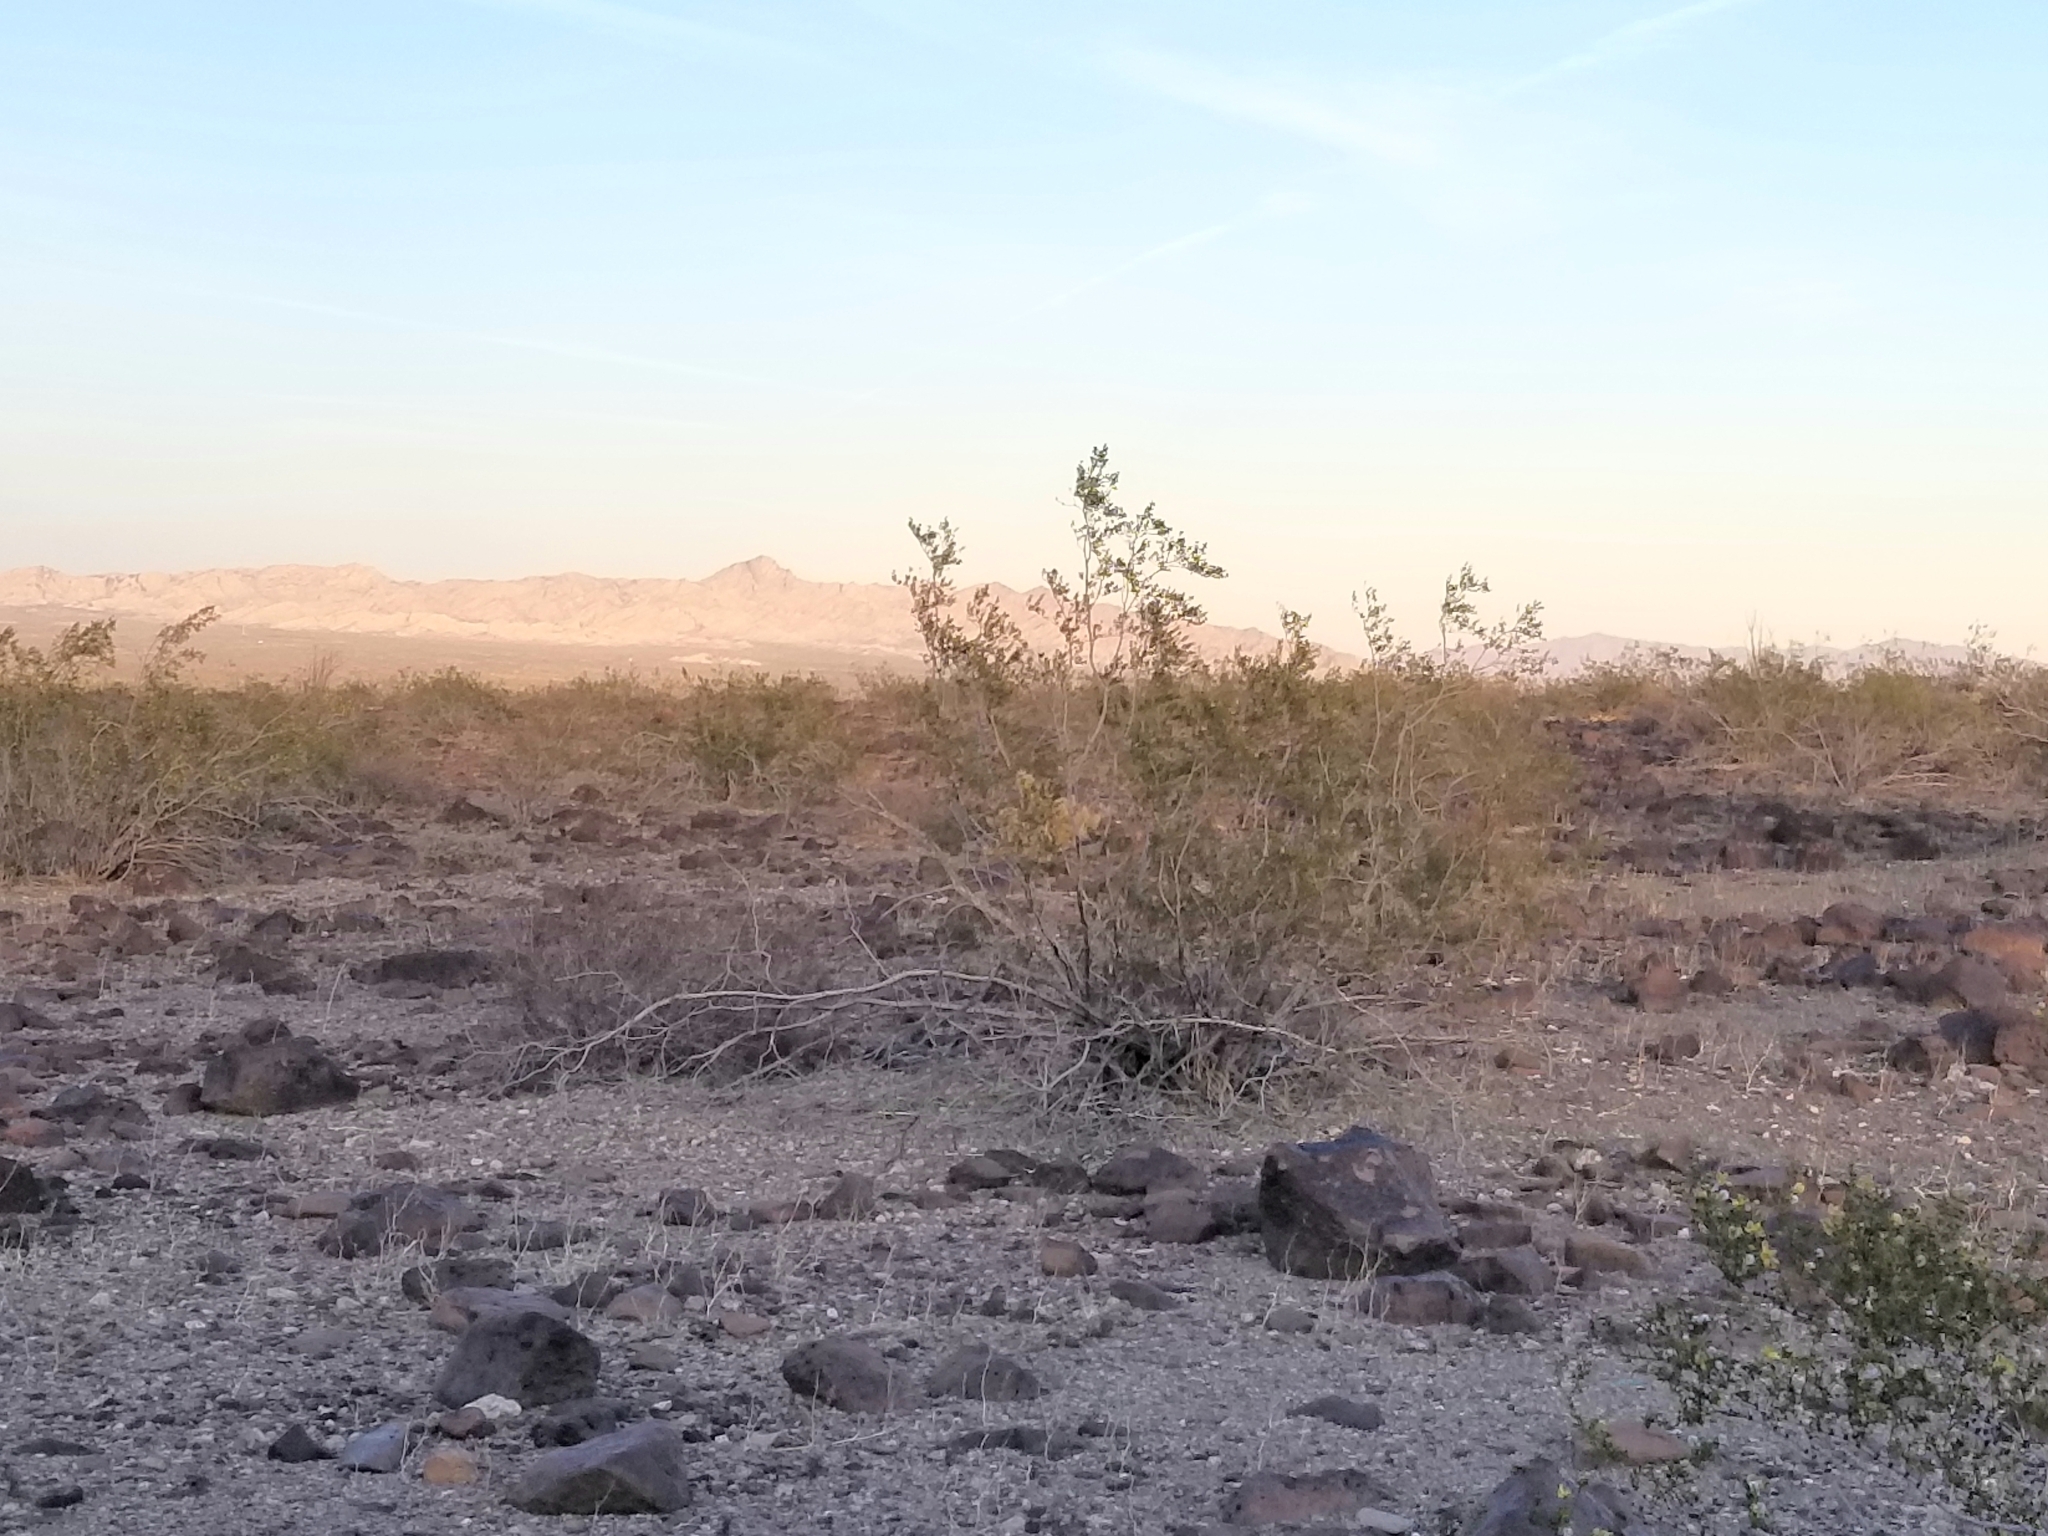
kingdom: Plantae
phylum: Tracheophyta
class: Magnoliopsida
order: Zygophyllales
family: Zygophyllaceae
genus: Larrea
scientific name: Larrea tridentata
